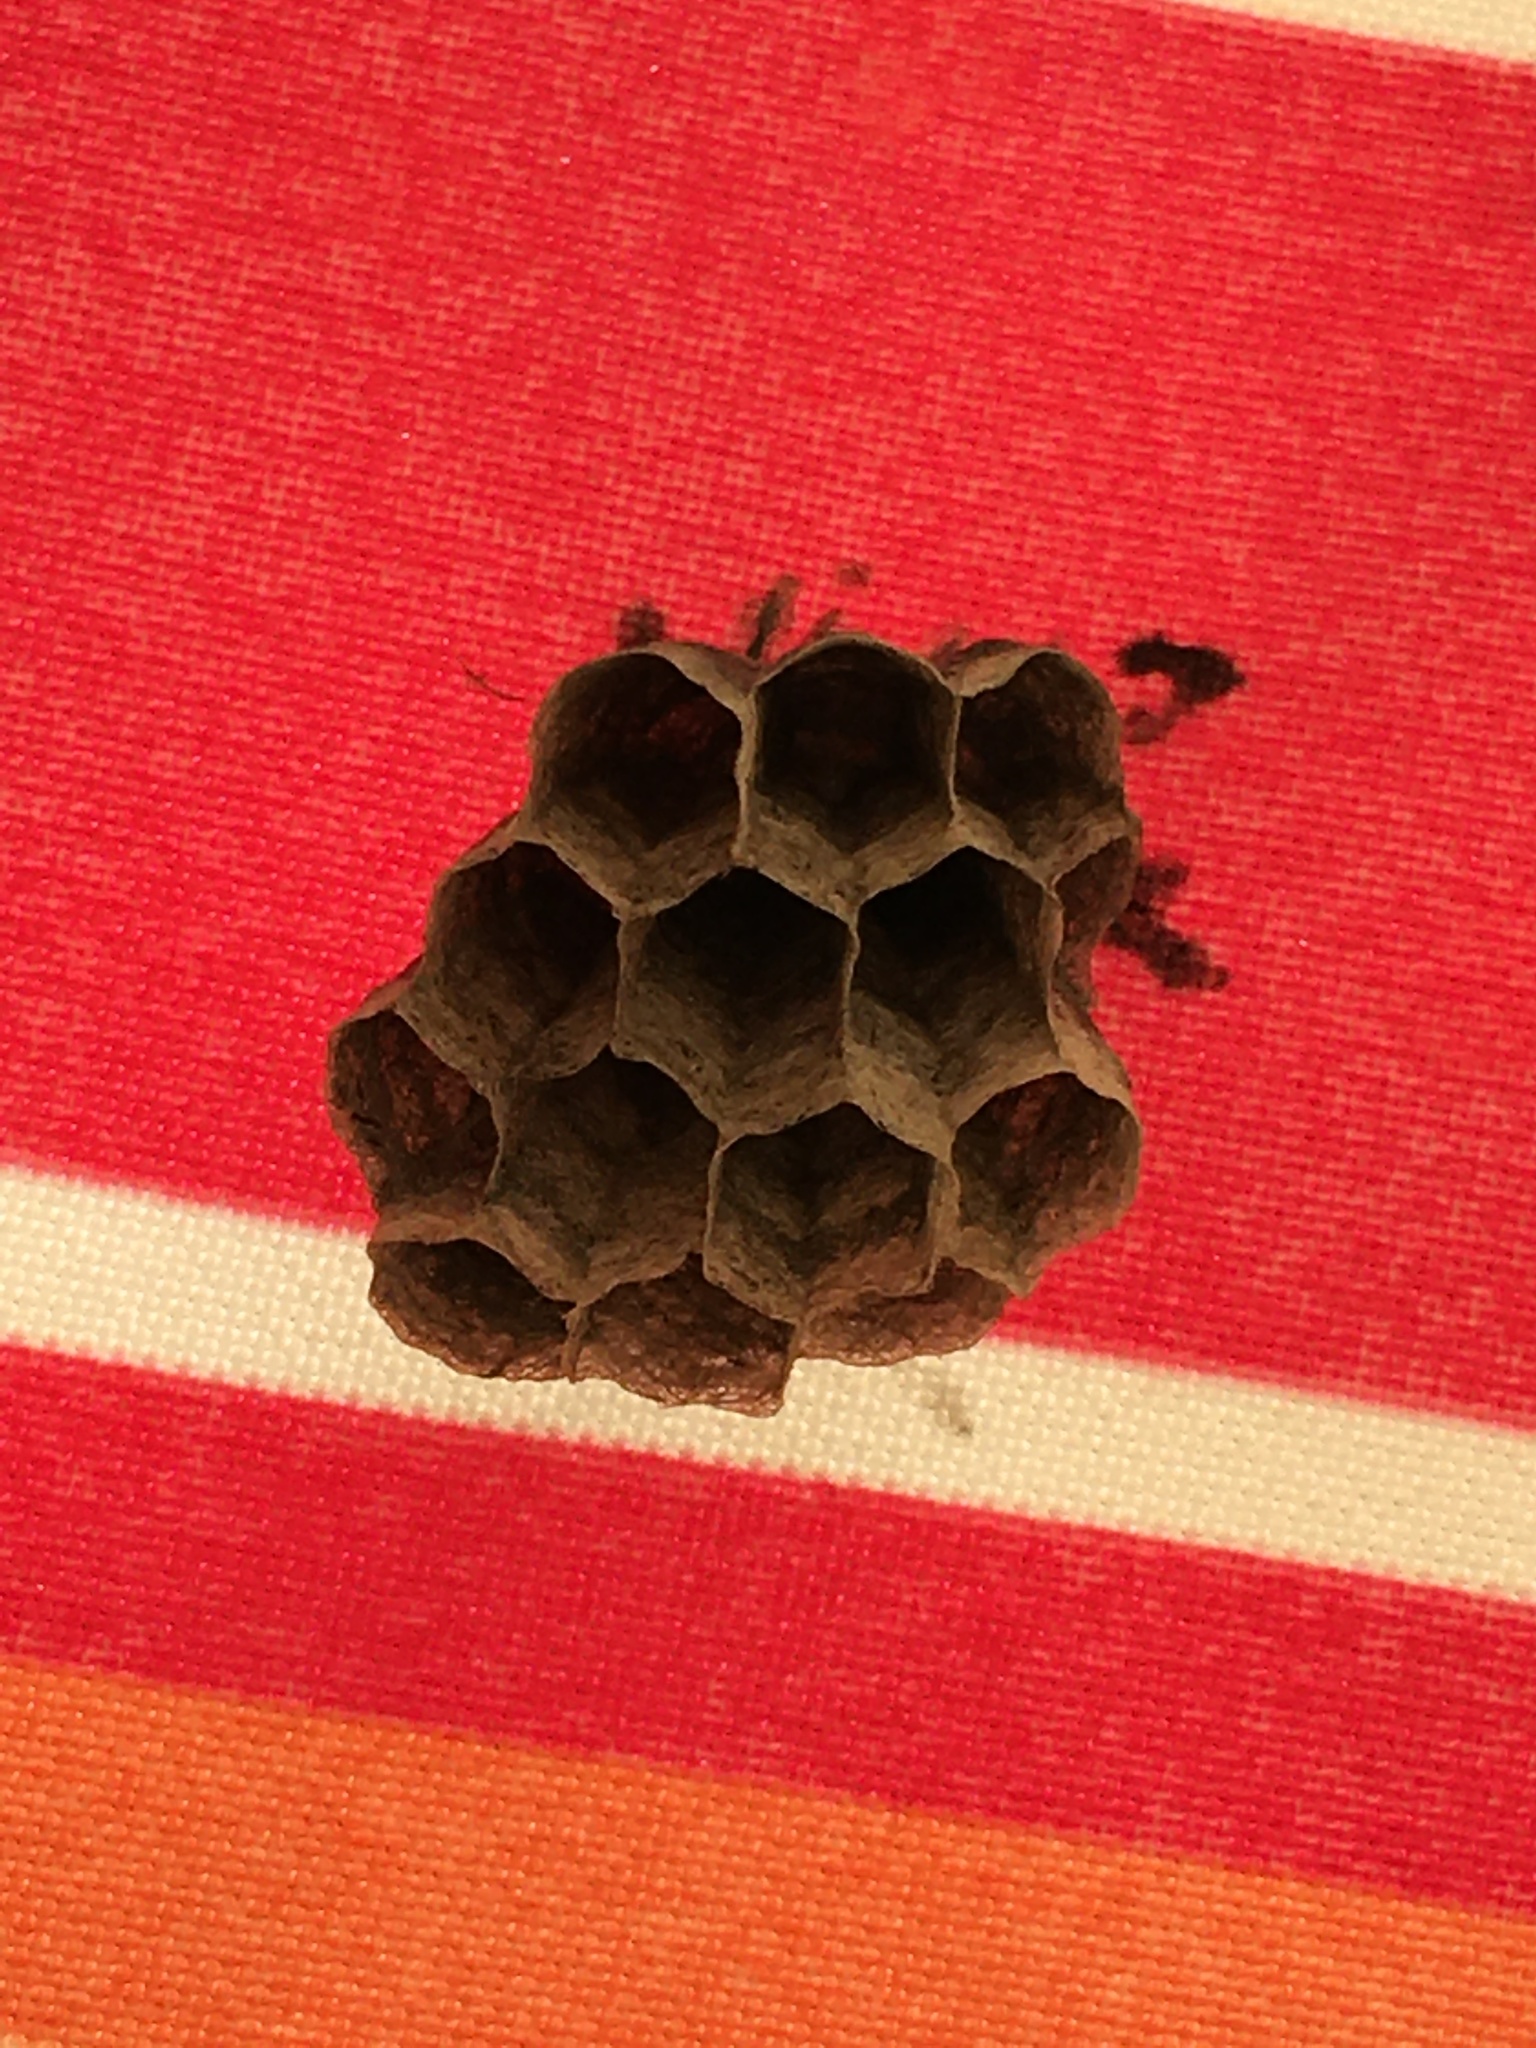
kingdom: Animalia
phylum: Arthropoda
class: Insecta
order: Hymenoptera
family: Eumenidae
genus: Polistes
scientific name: Polistes
